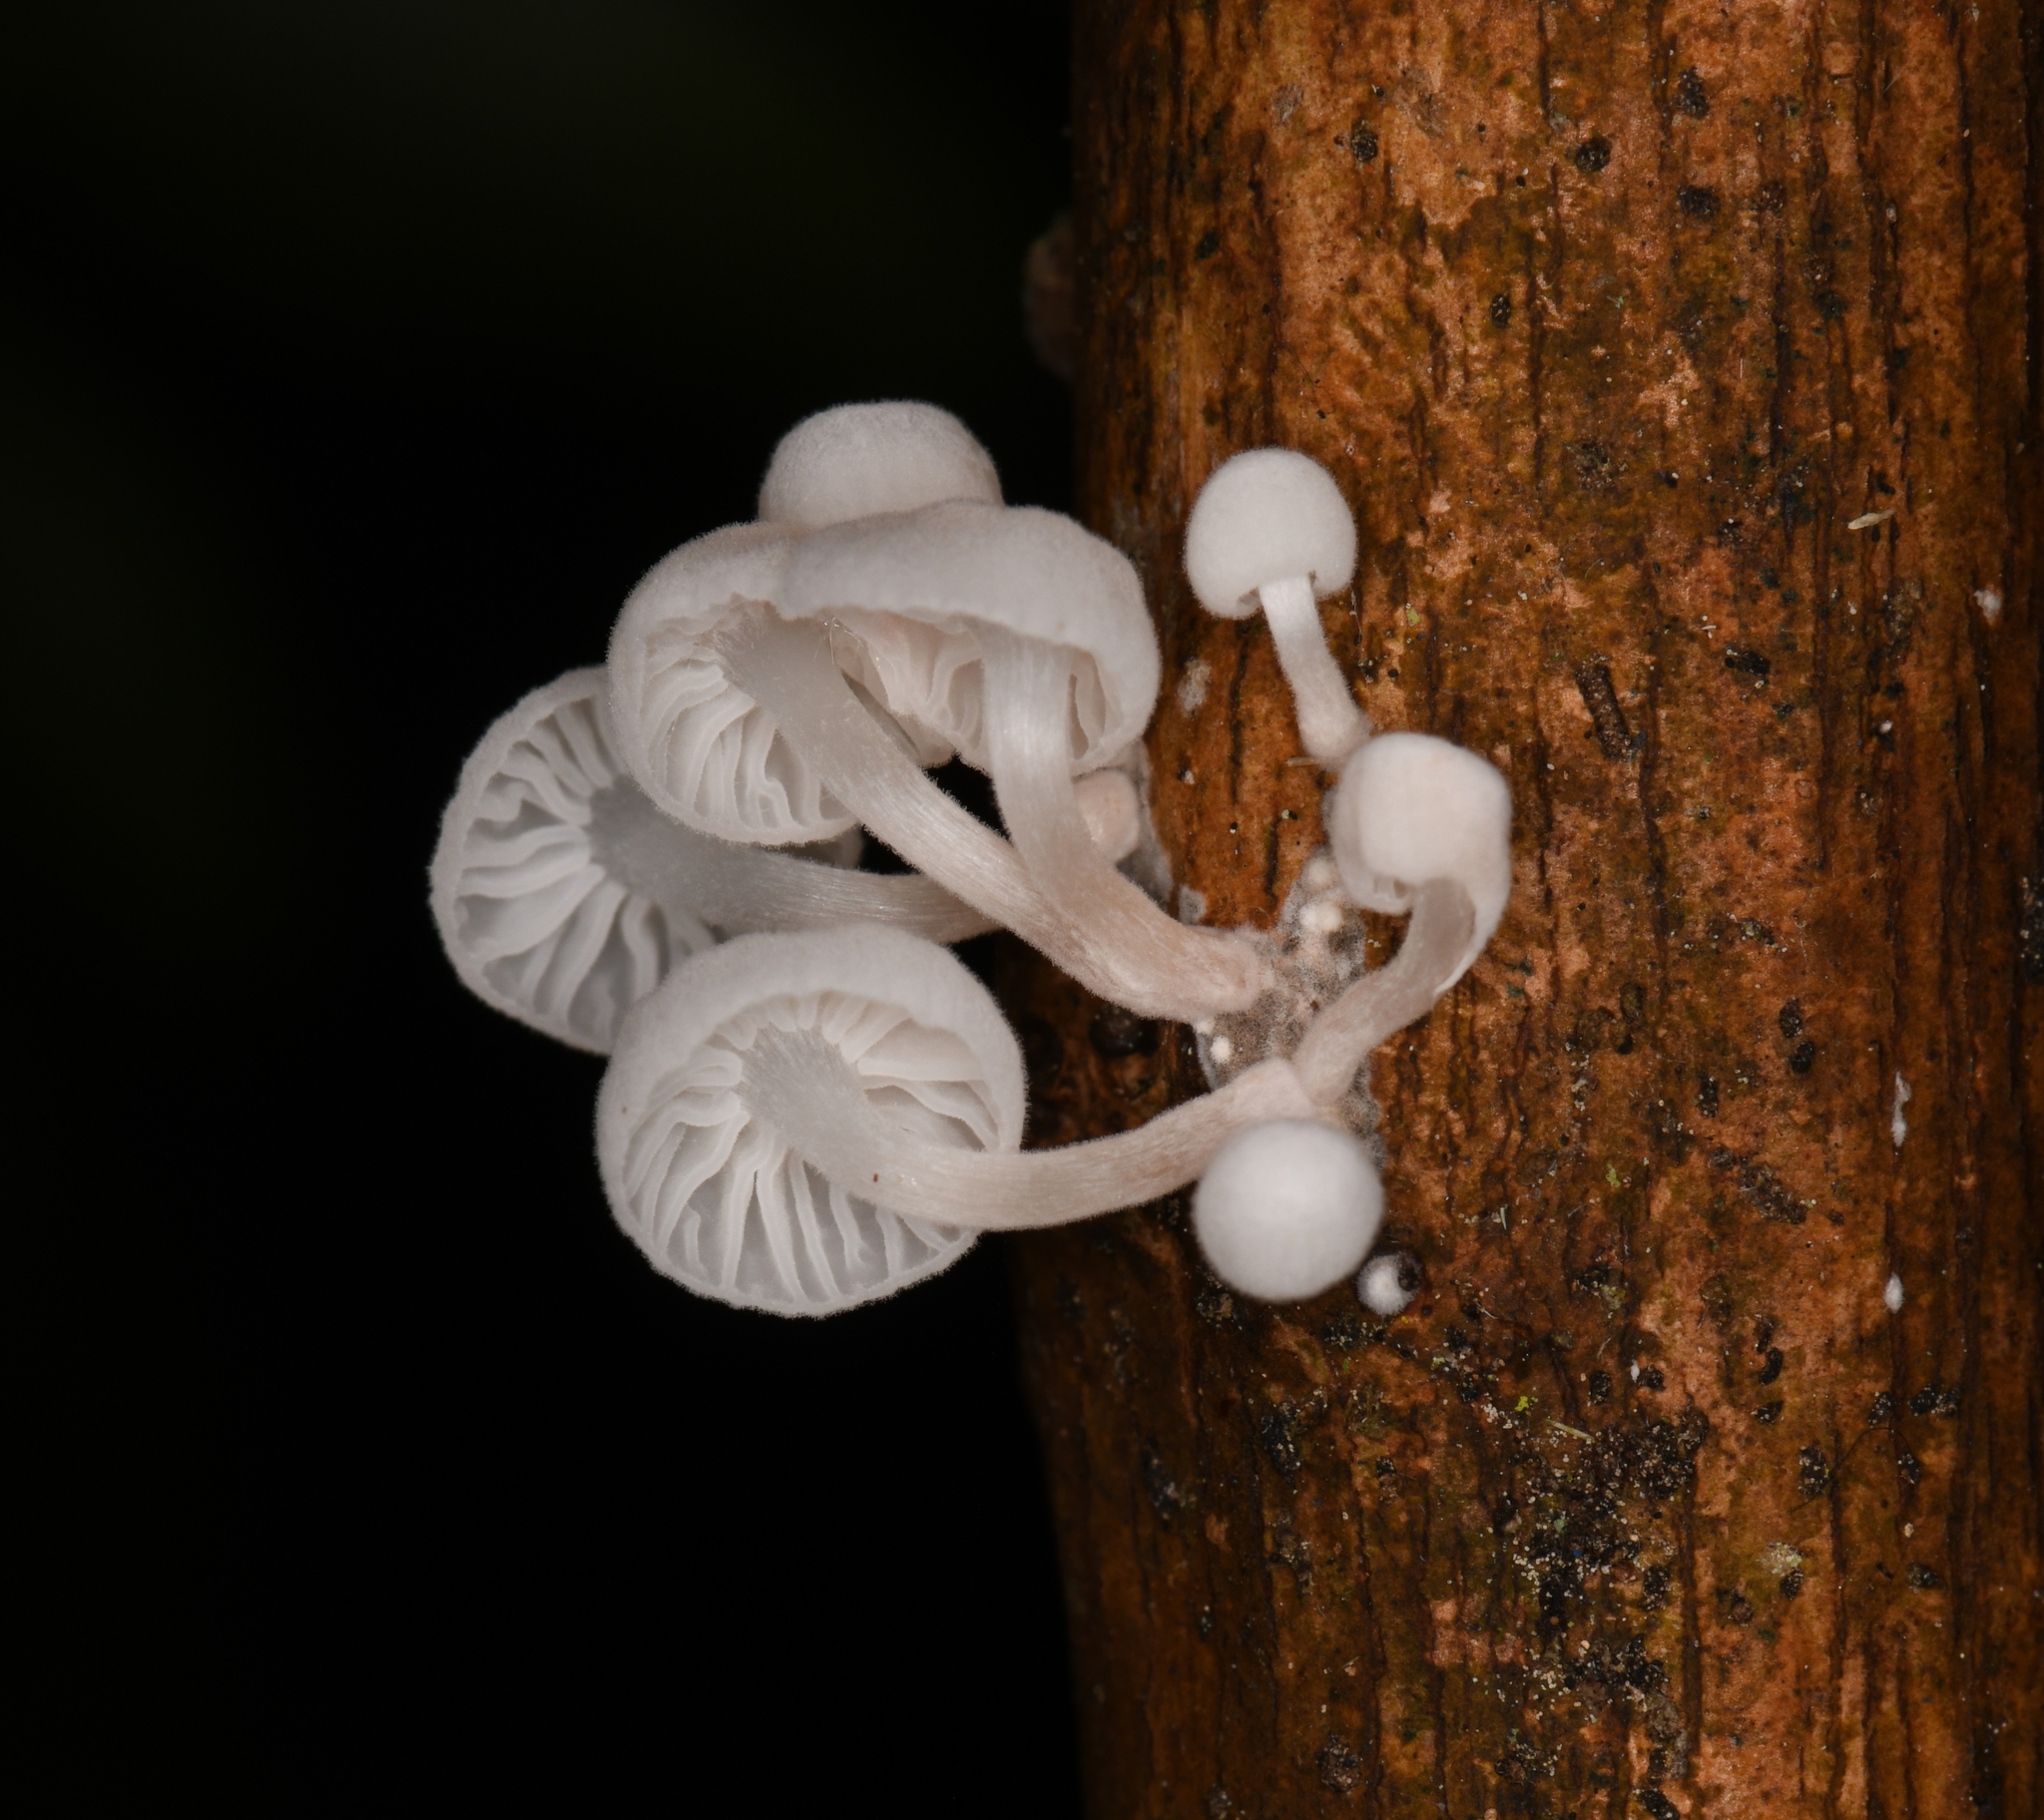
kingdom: Fungi
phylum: Basidiomycota
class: Agaricomycetes
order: Agaricales
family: Omphalotaceae
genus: Marasmiellus
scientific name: Marasmiellus candidus
